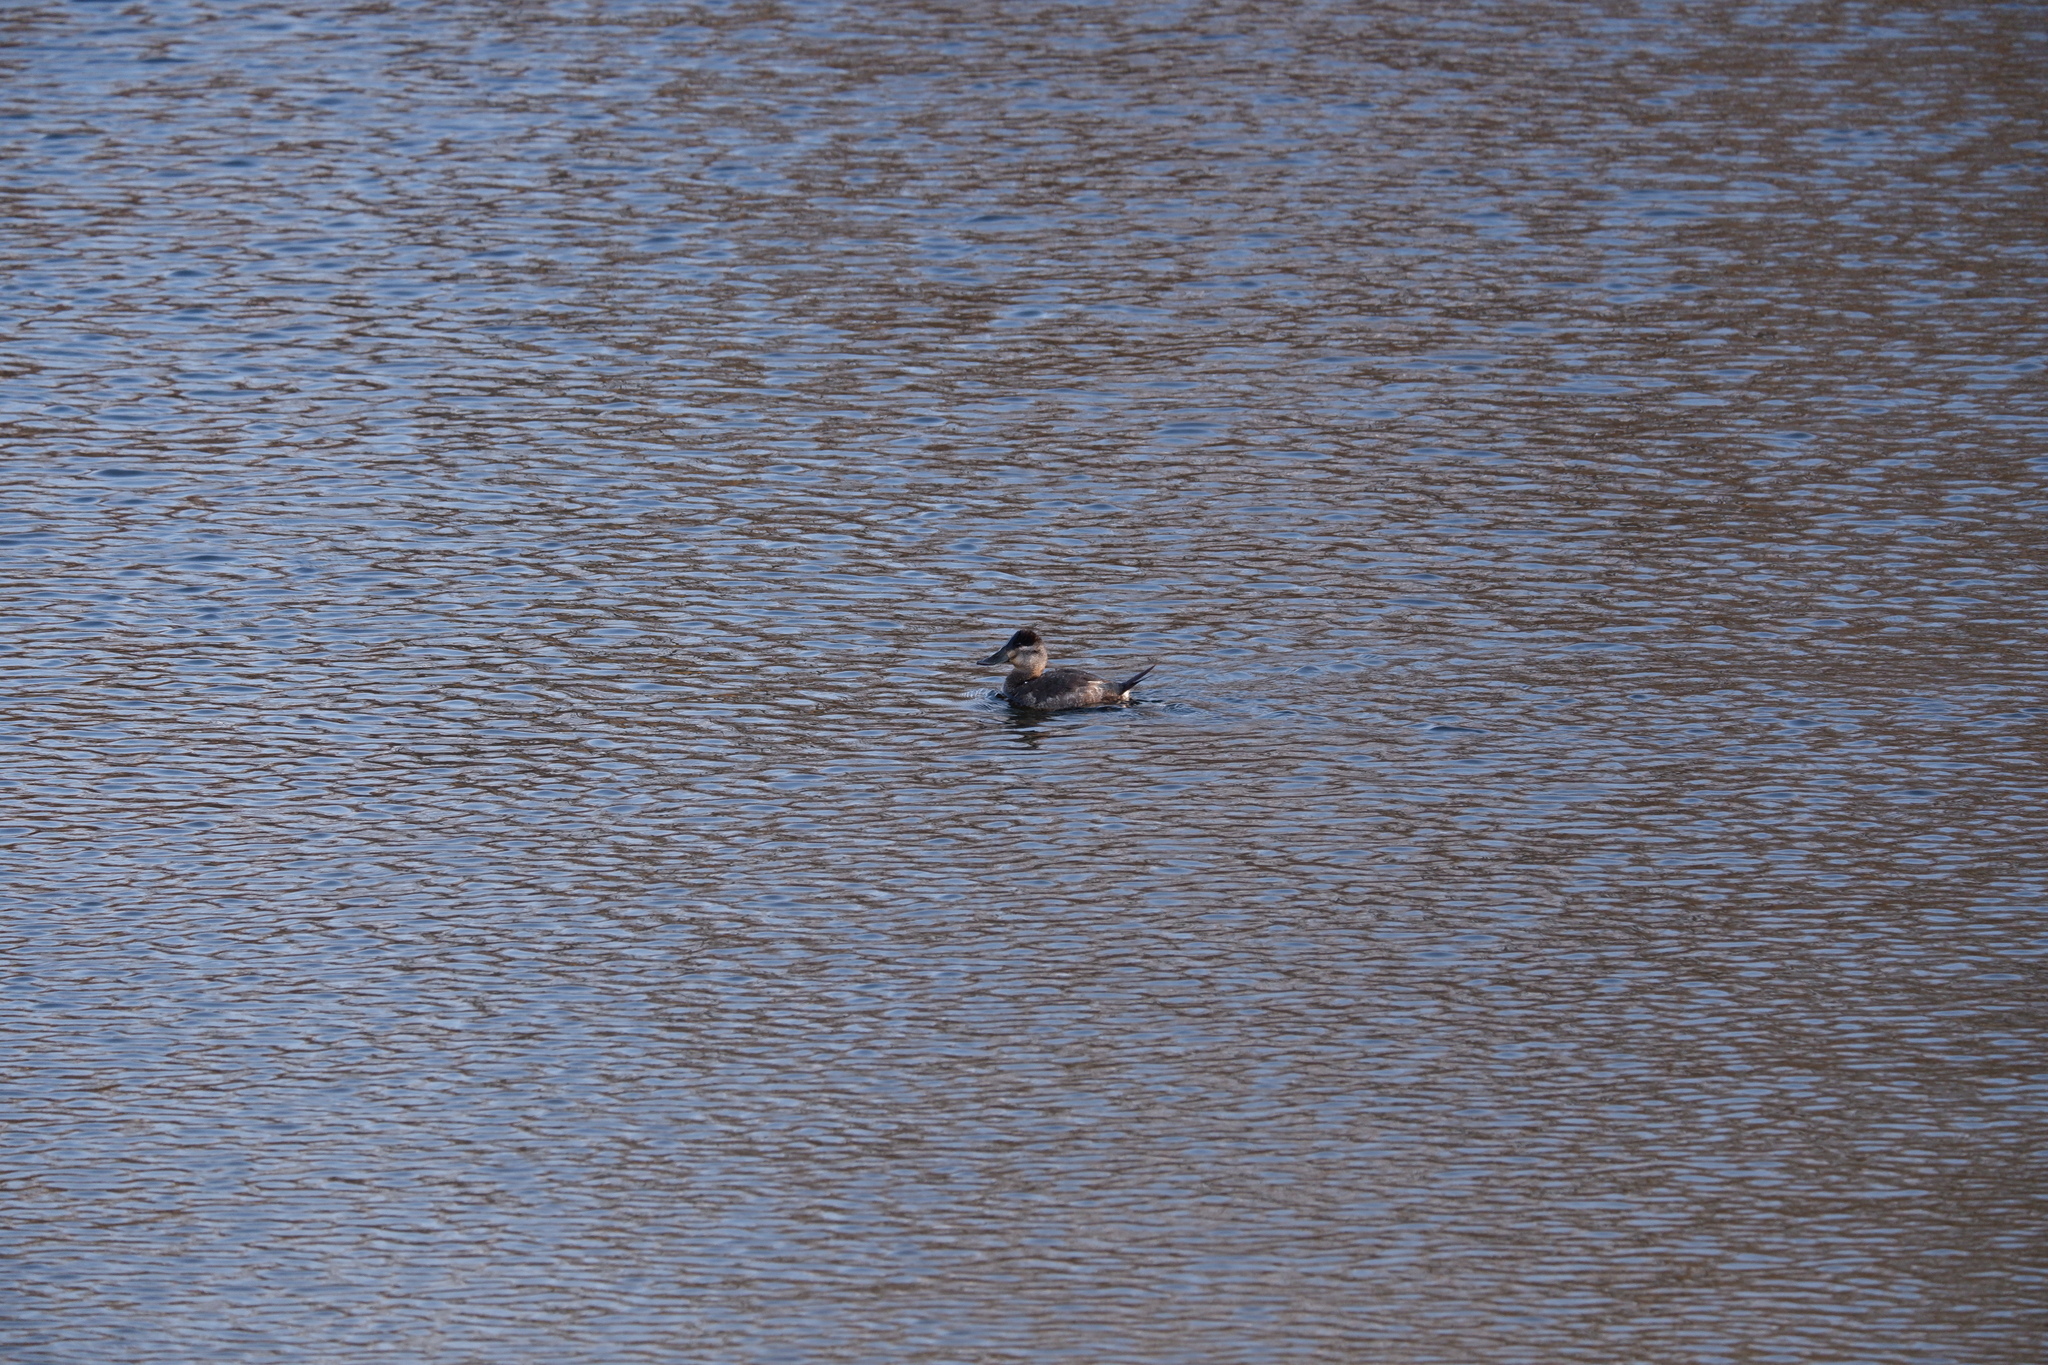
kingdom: Animalia
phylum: Chordata
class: Aves
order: Anseriformes
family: Anatidae
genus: Oxyura
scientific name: Oxyura jamaicensis
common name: Ruddy duck
